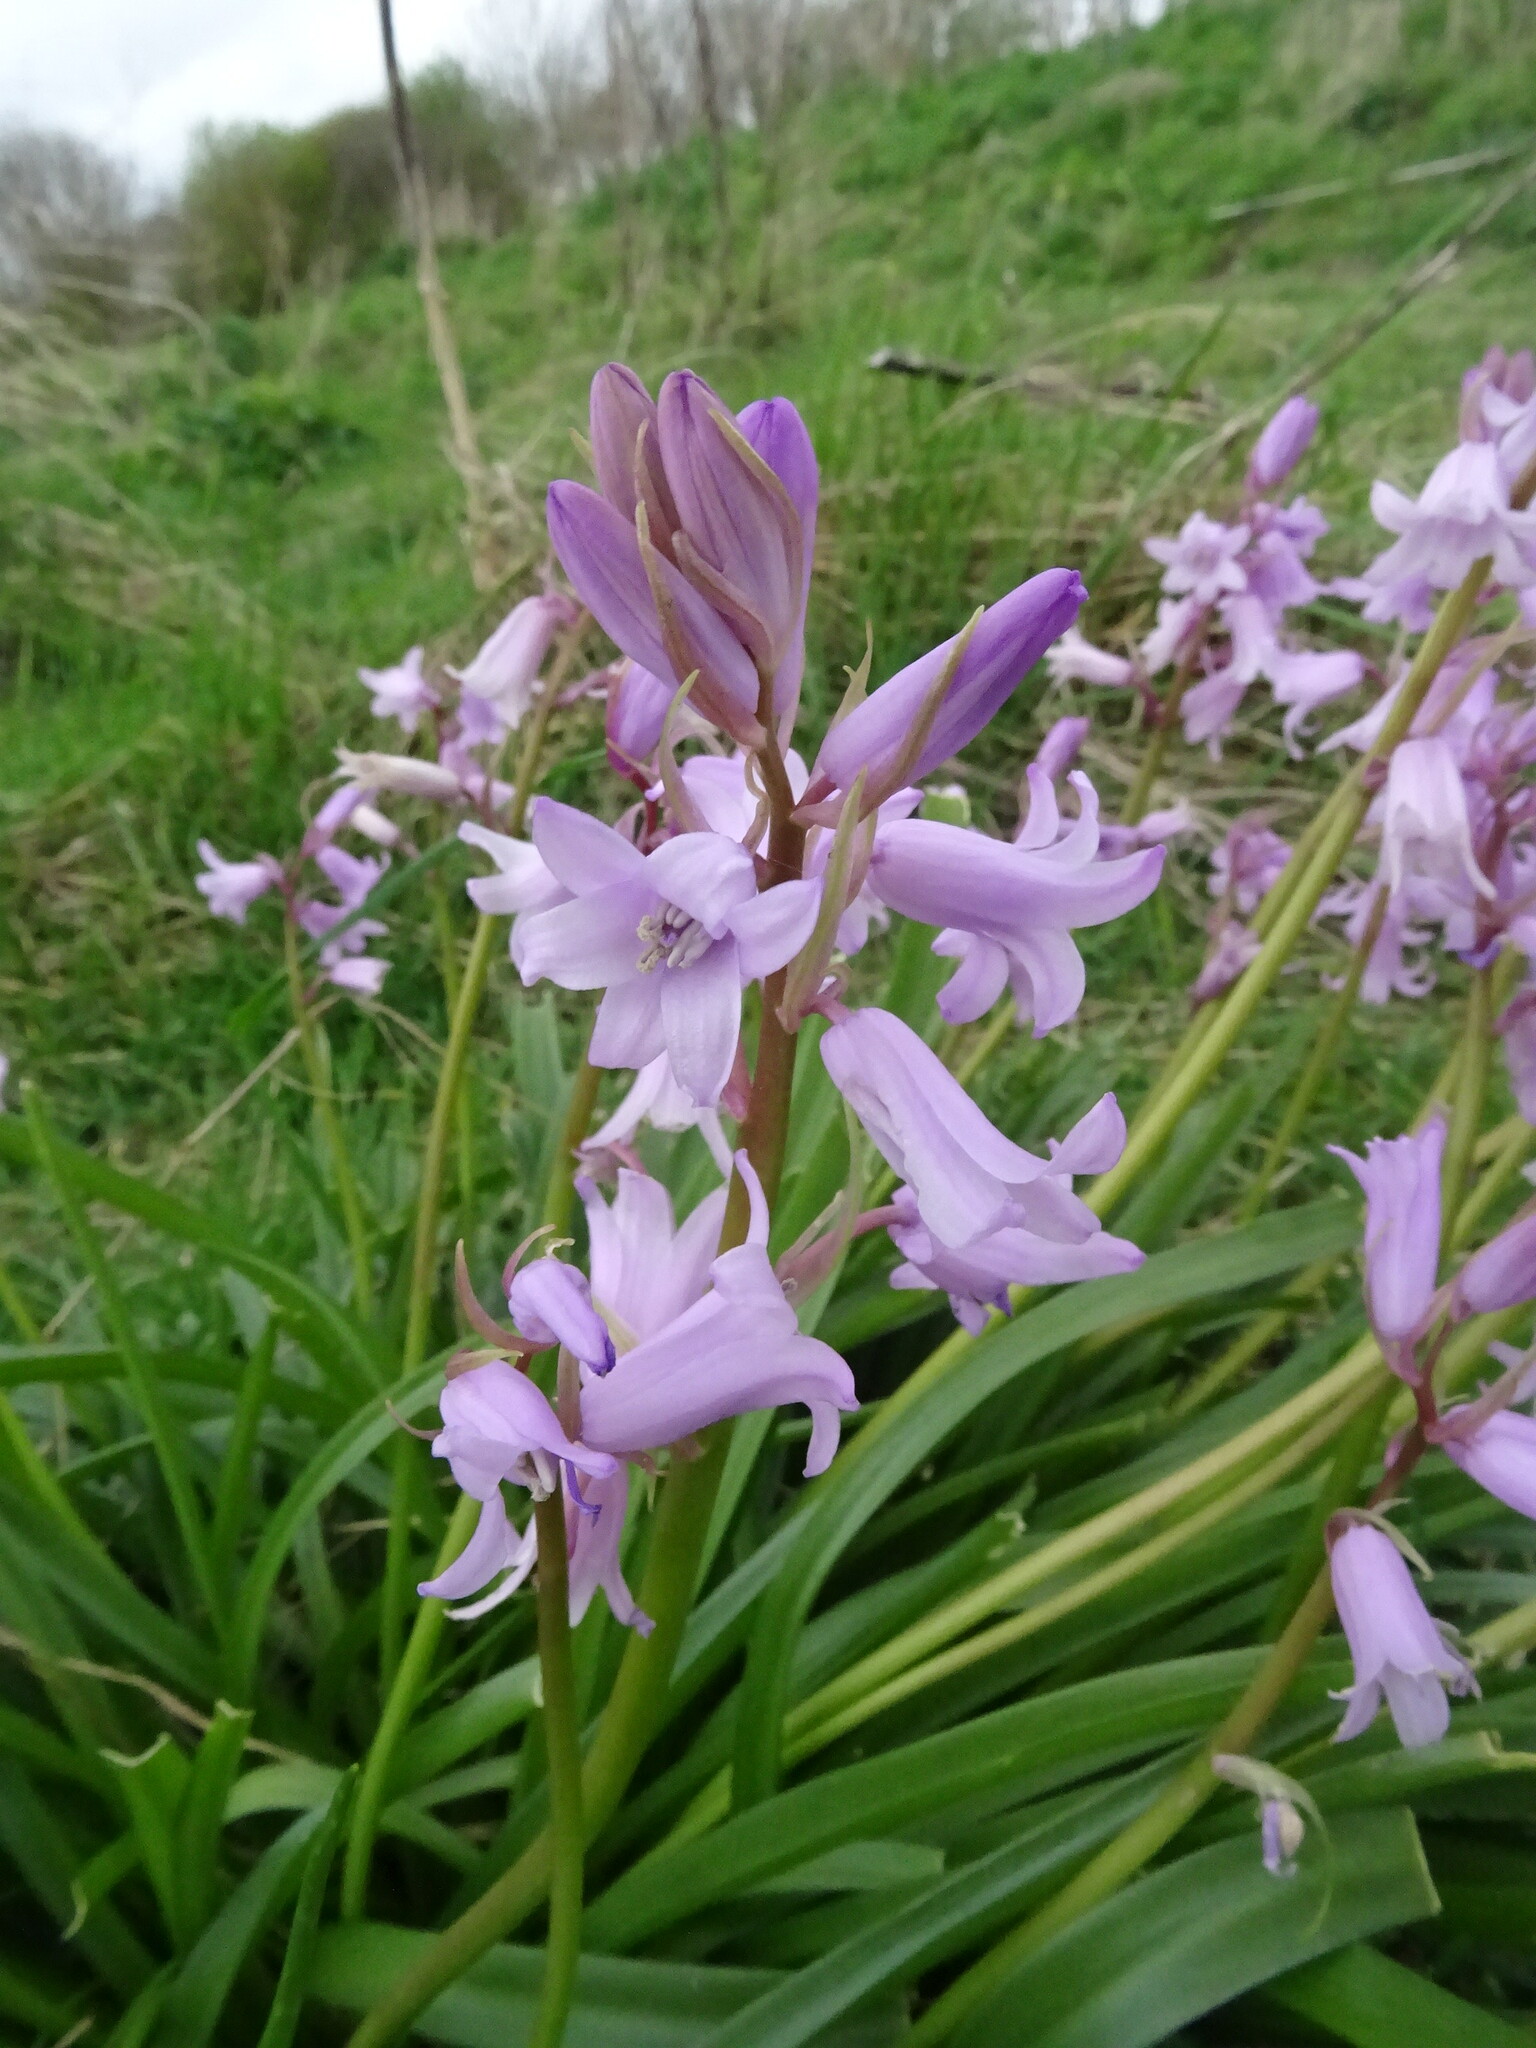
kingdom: Plantae
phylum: Tracheophyta
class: Liliopsida
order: Asparagales
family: Asparagaceae
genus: Hyacinthoides
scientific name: Hyacinthoides massartiana
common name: Hyacinthoides
